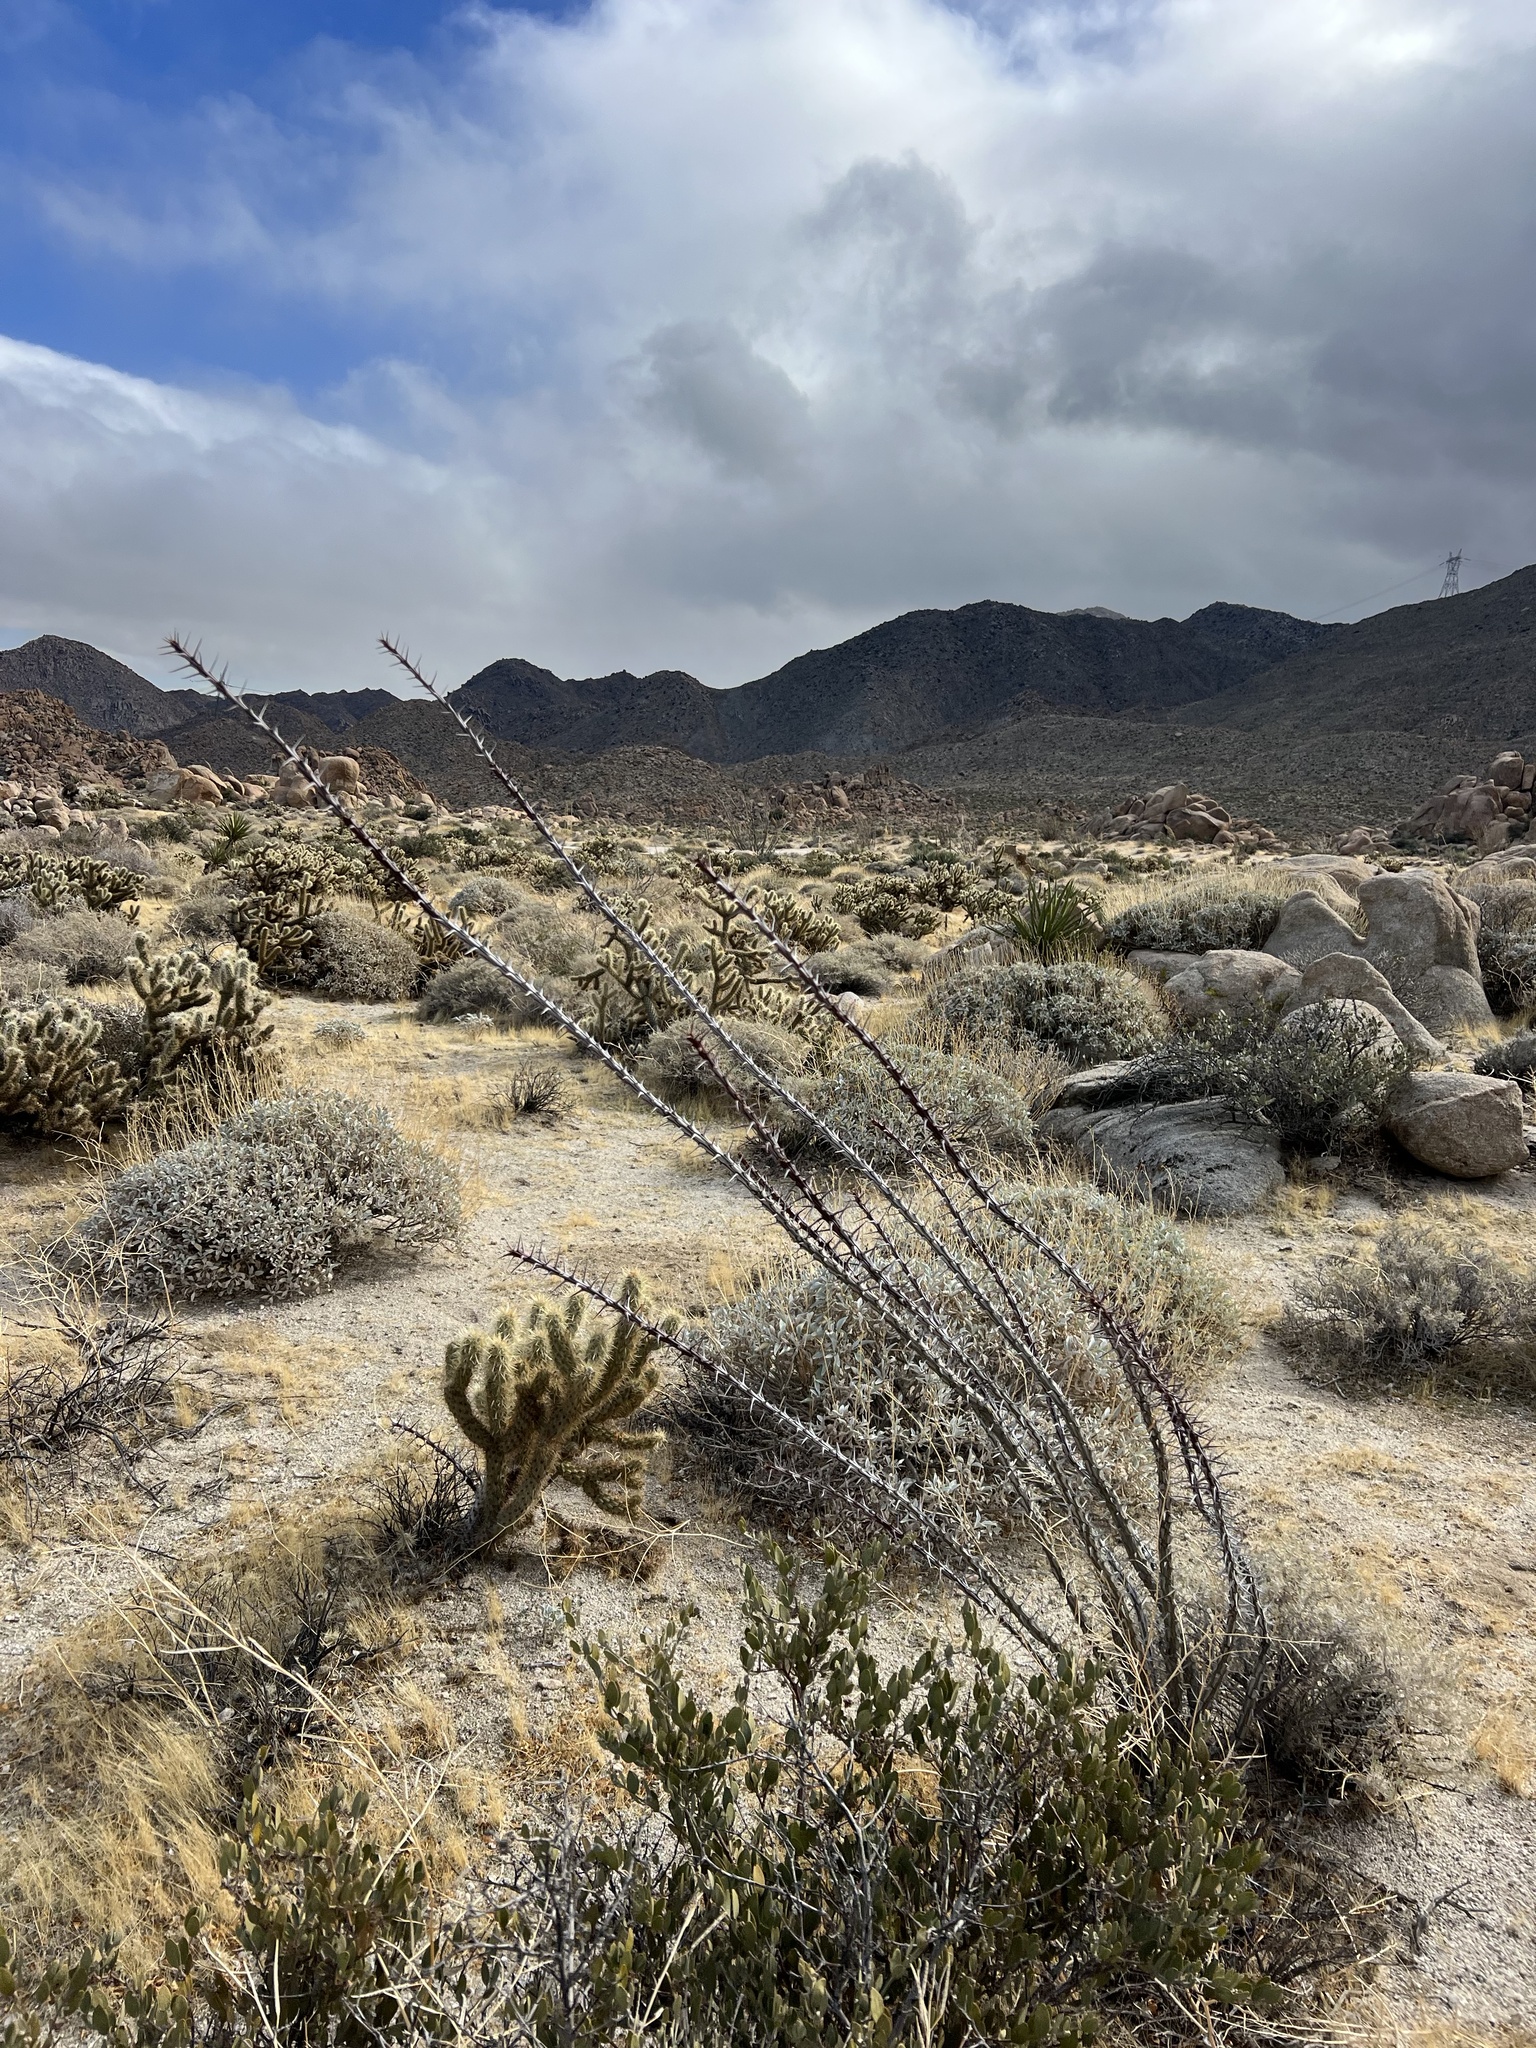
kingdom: Plantae
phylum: Tracheophyta
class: Magnoliopsida
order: Ericales
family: Fouquieriaceae
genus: Fouquieria
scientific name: Fouquieria splendens
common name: Vine-cactus
